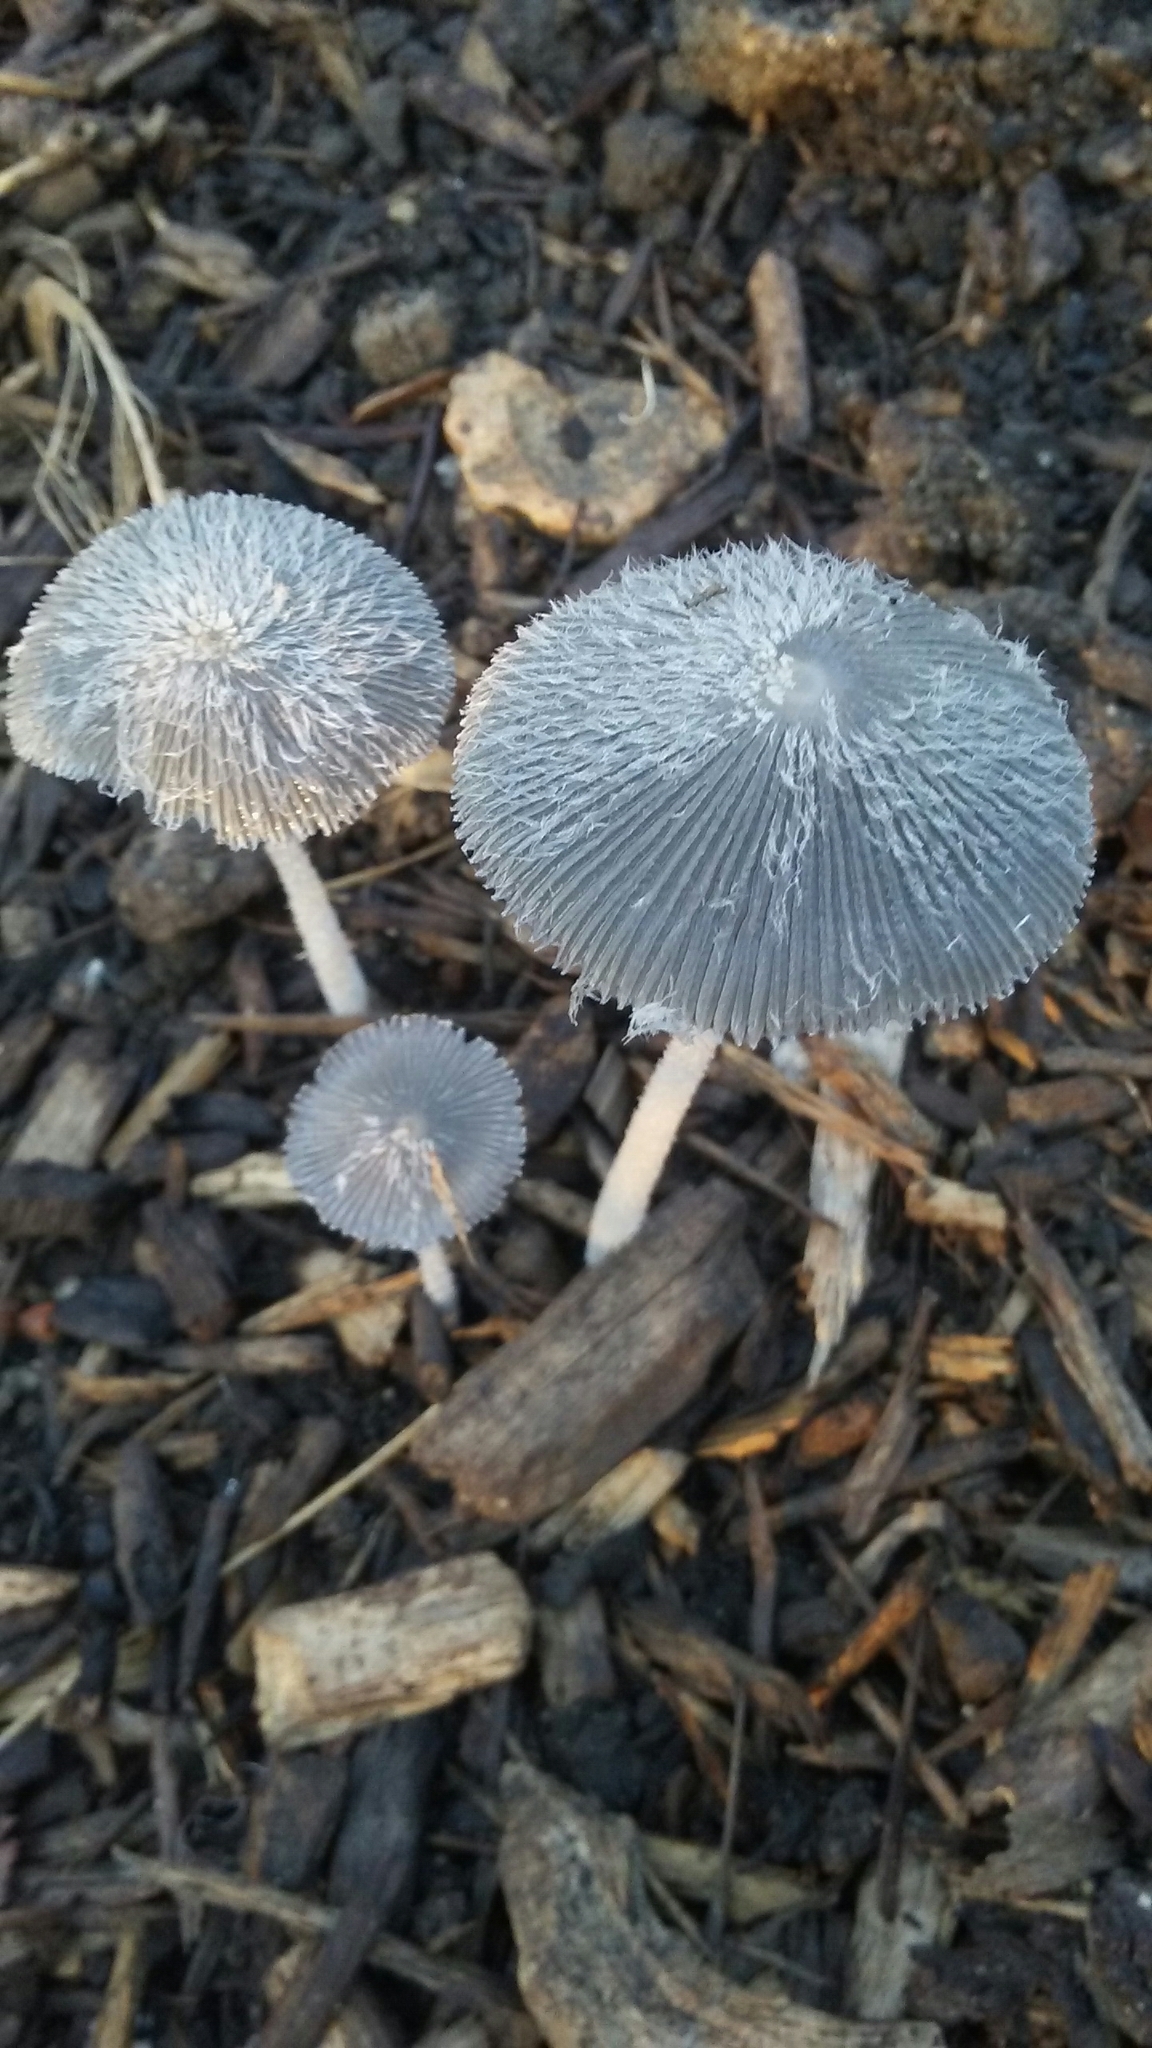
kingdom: Fungi
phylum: Basidiomycota
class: Agaricomycetes
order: Agaricales
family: Psathyrellaceae
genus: Coprinopsis
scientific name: Coprinopsis lagopus
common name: Hare'sfoot inkcap
